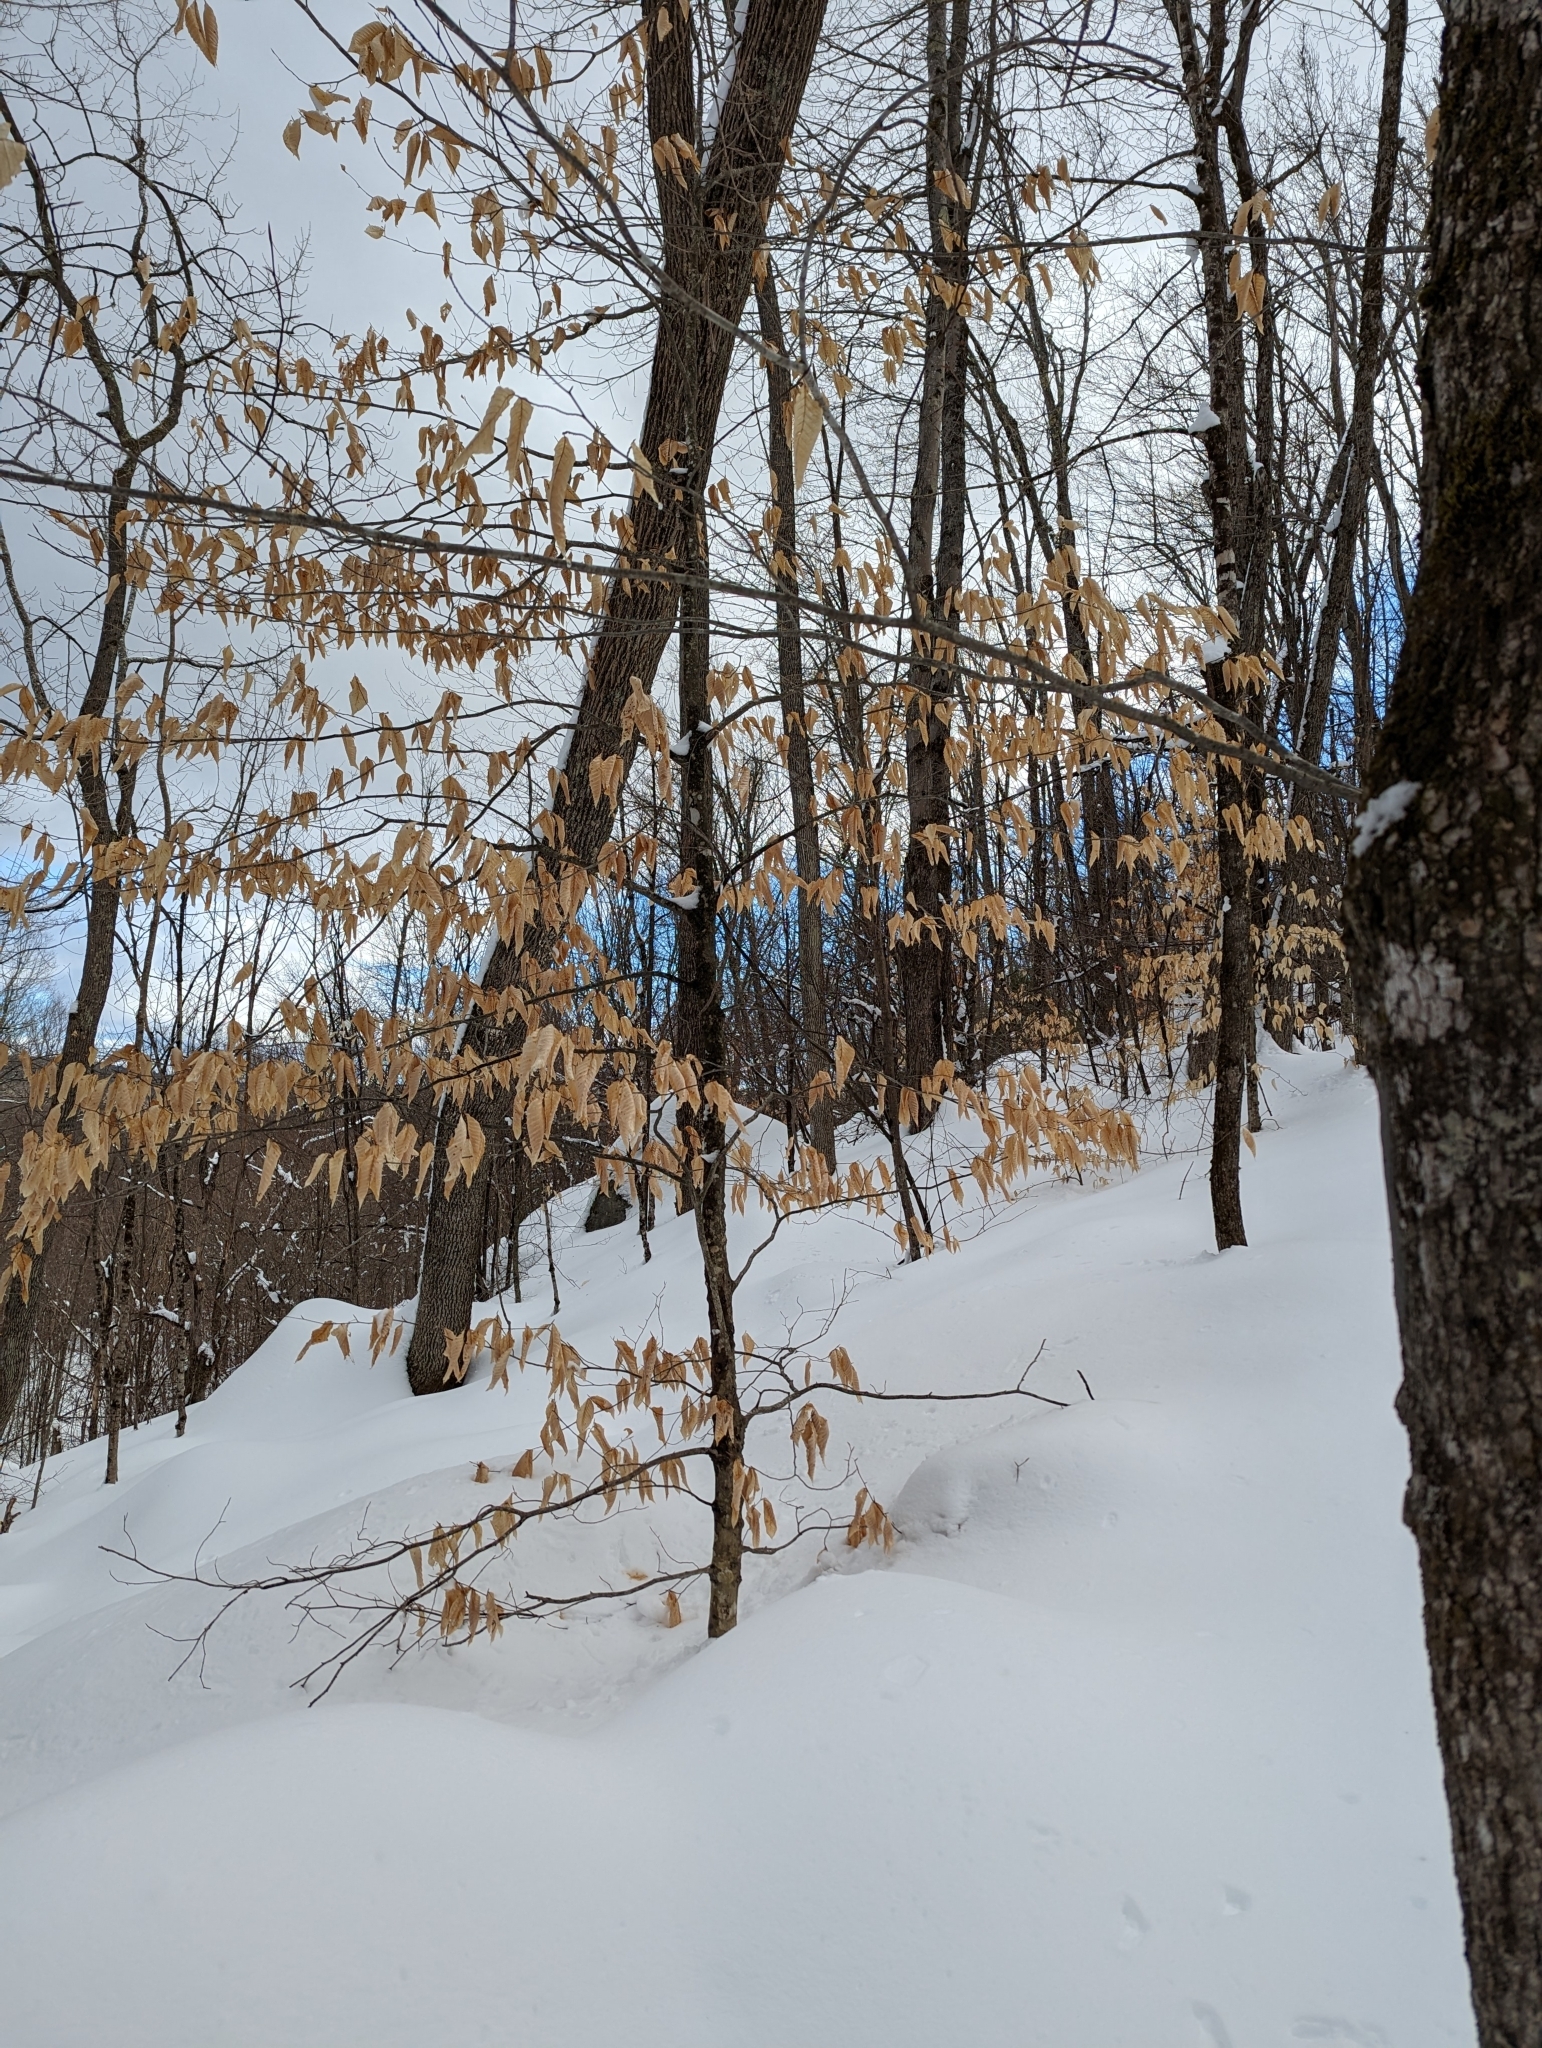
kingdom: Plantae
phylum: Tracheophyta
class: Magnoliopsida
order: Fagales
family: Fagaceae
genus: Fagus
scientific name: Fagus grandifolia
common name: American beech
